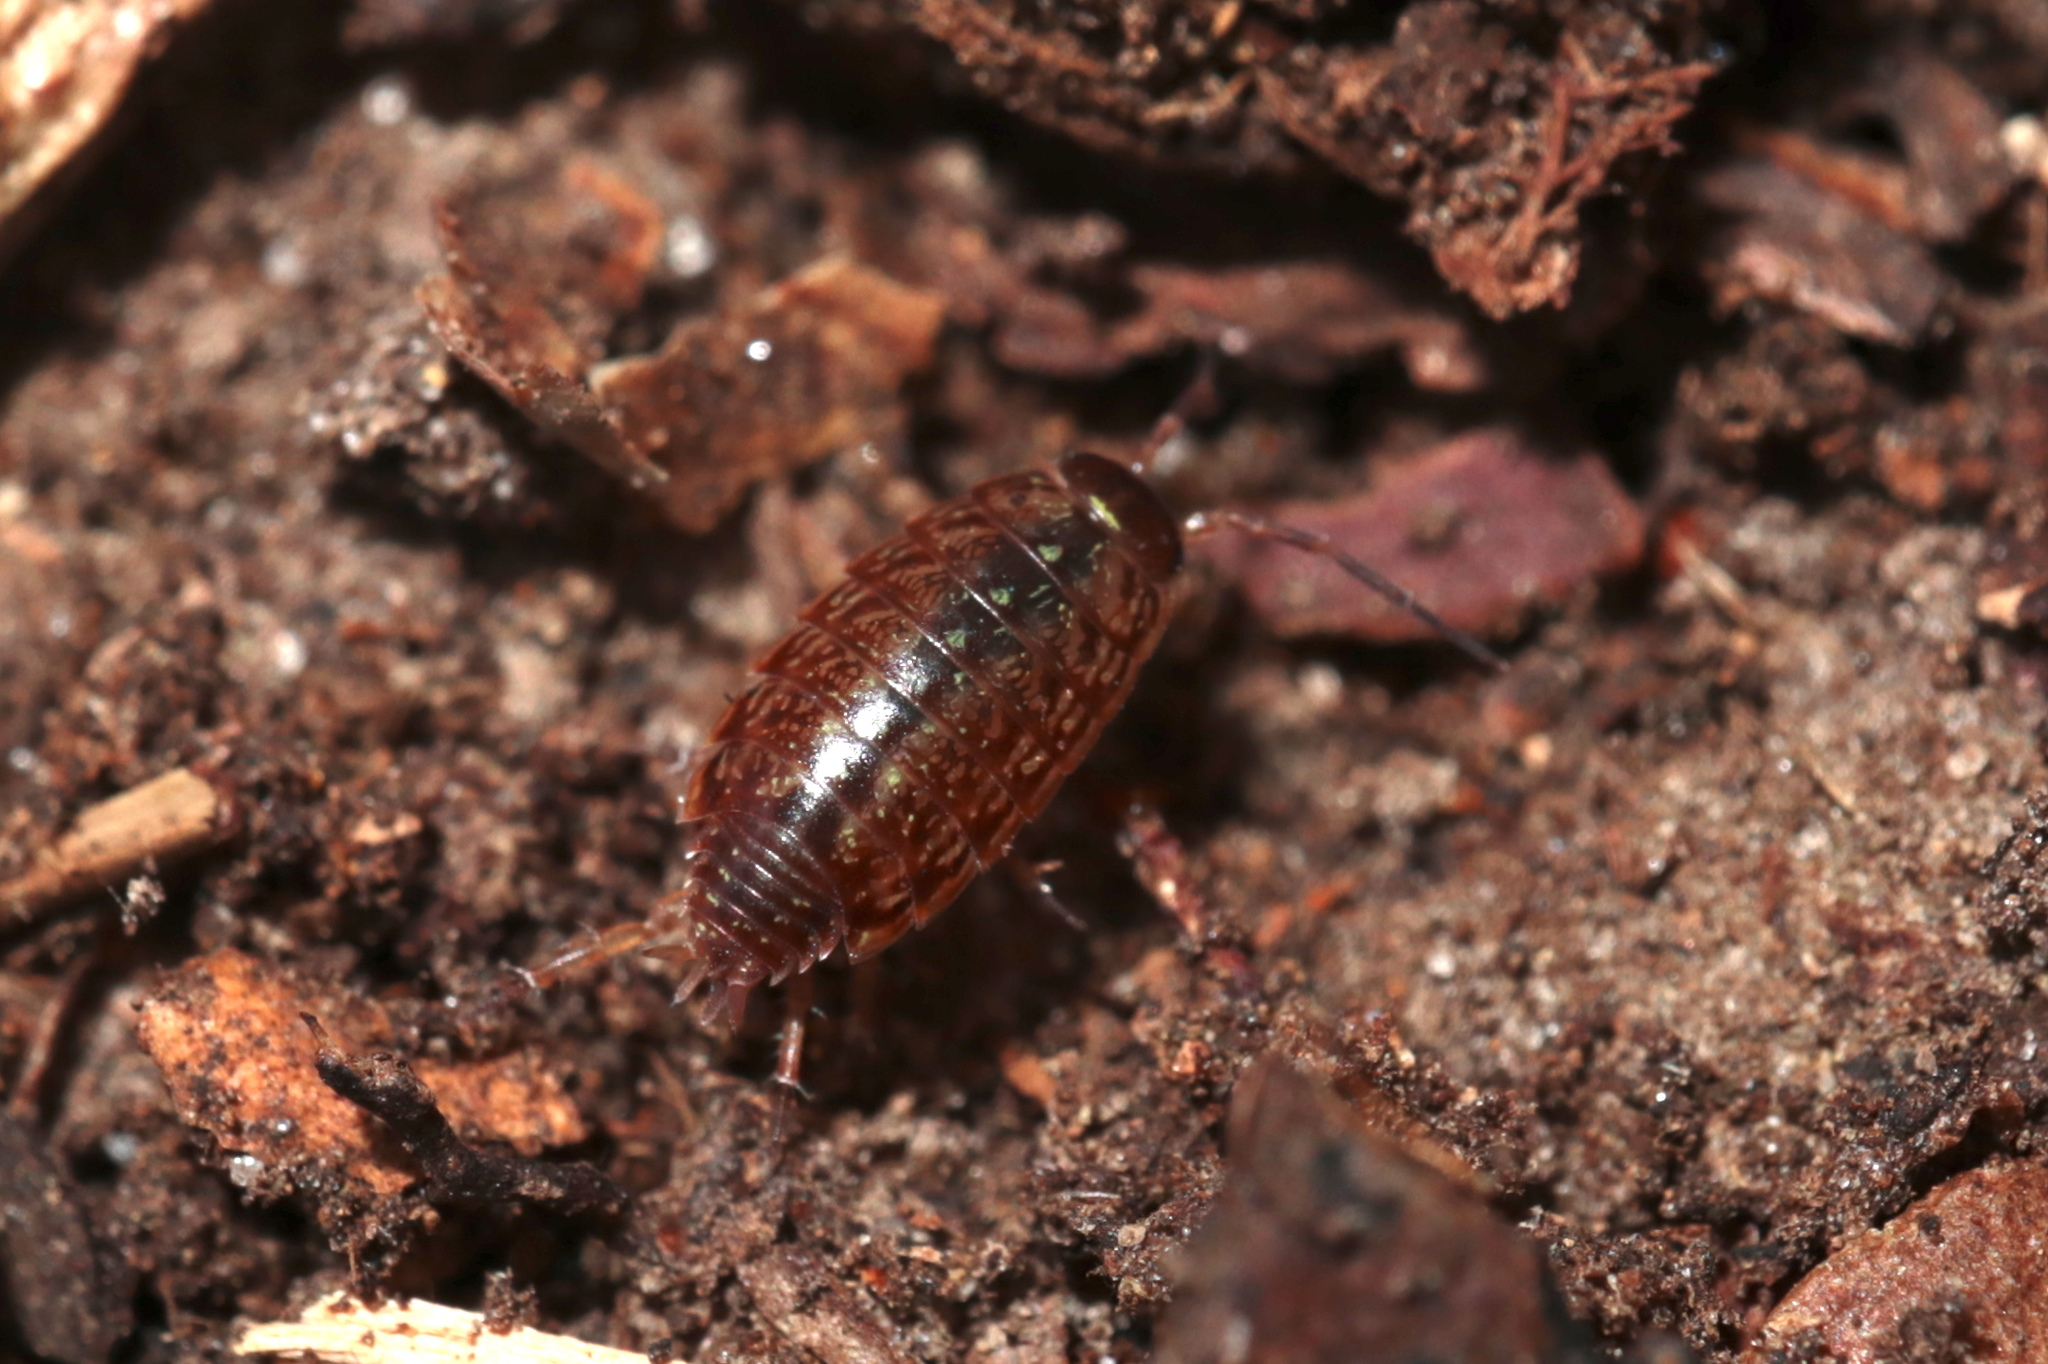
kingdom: Animalia
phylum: Arthropoda
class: Malacostraca
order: Isopoda
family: Philosciidae
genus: Philoscia
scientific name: Philoscia muscorum
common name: Common striped woodlouse
